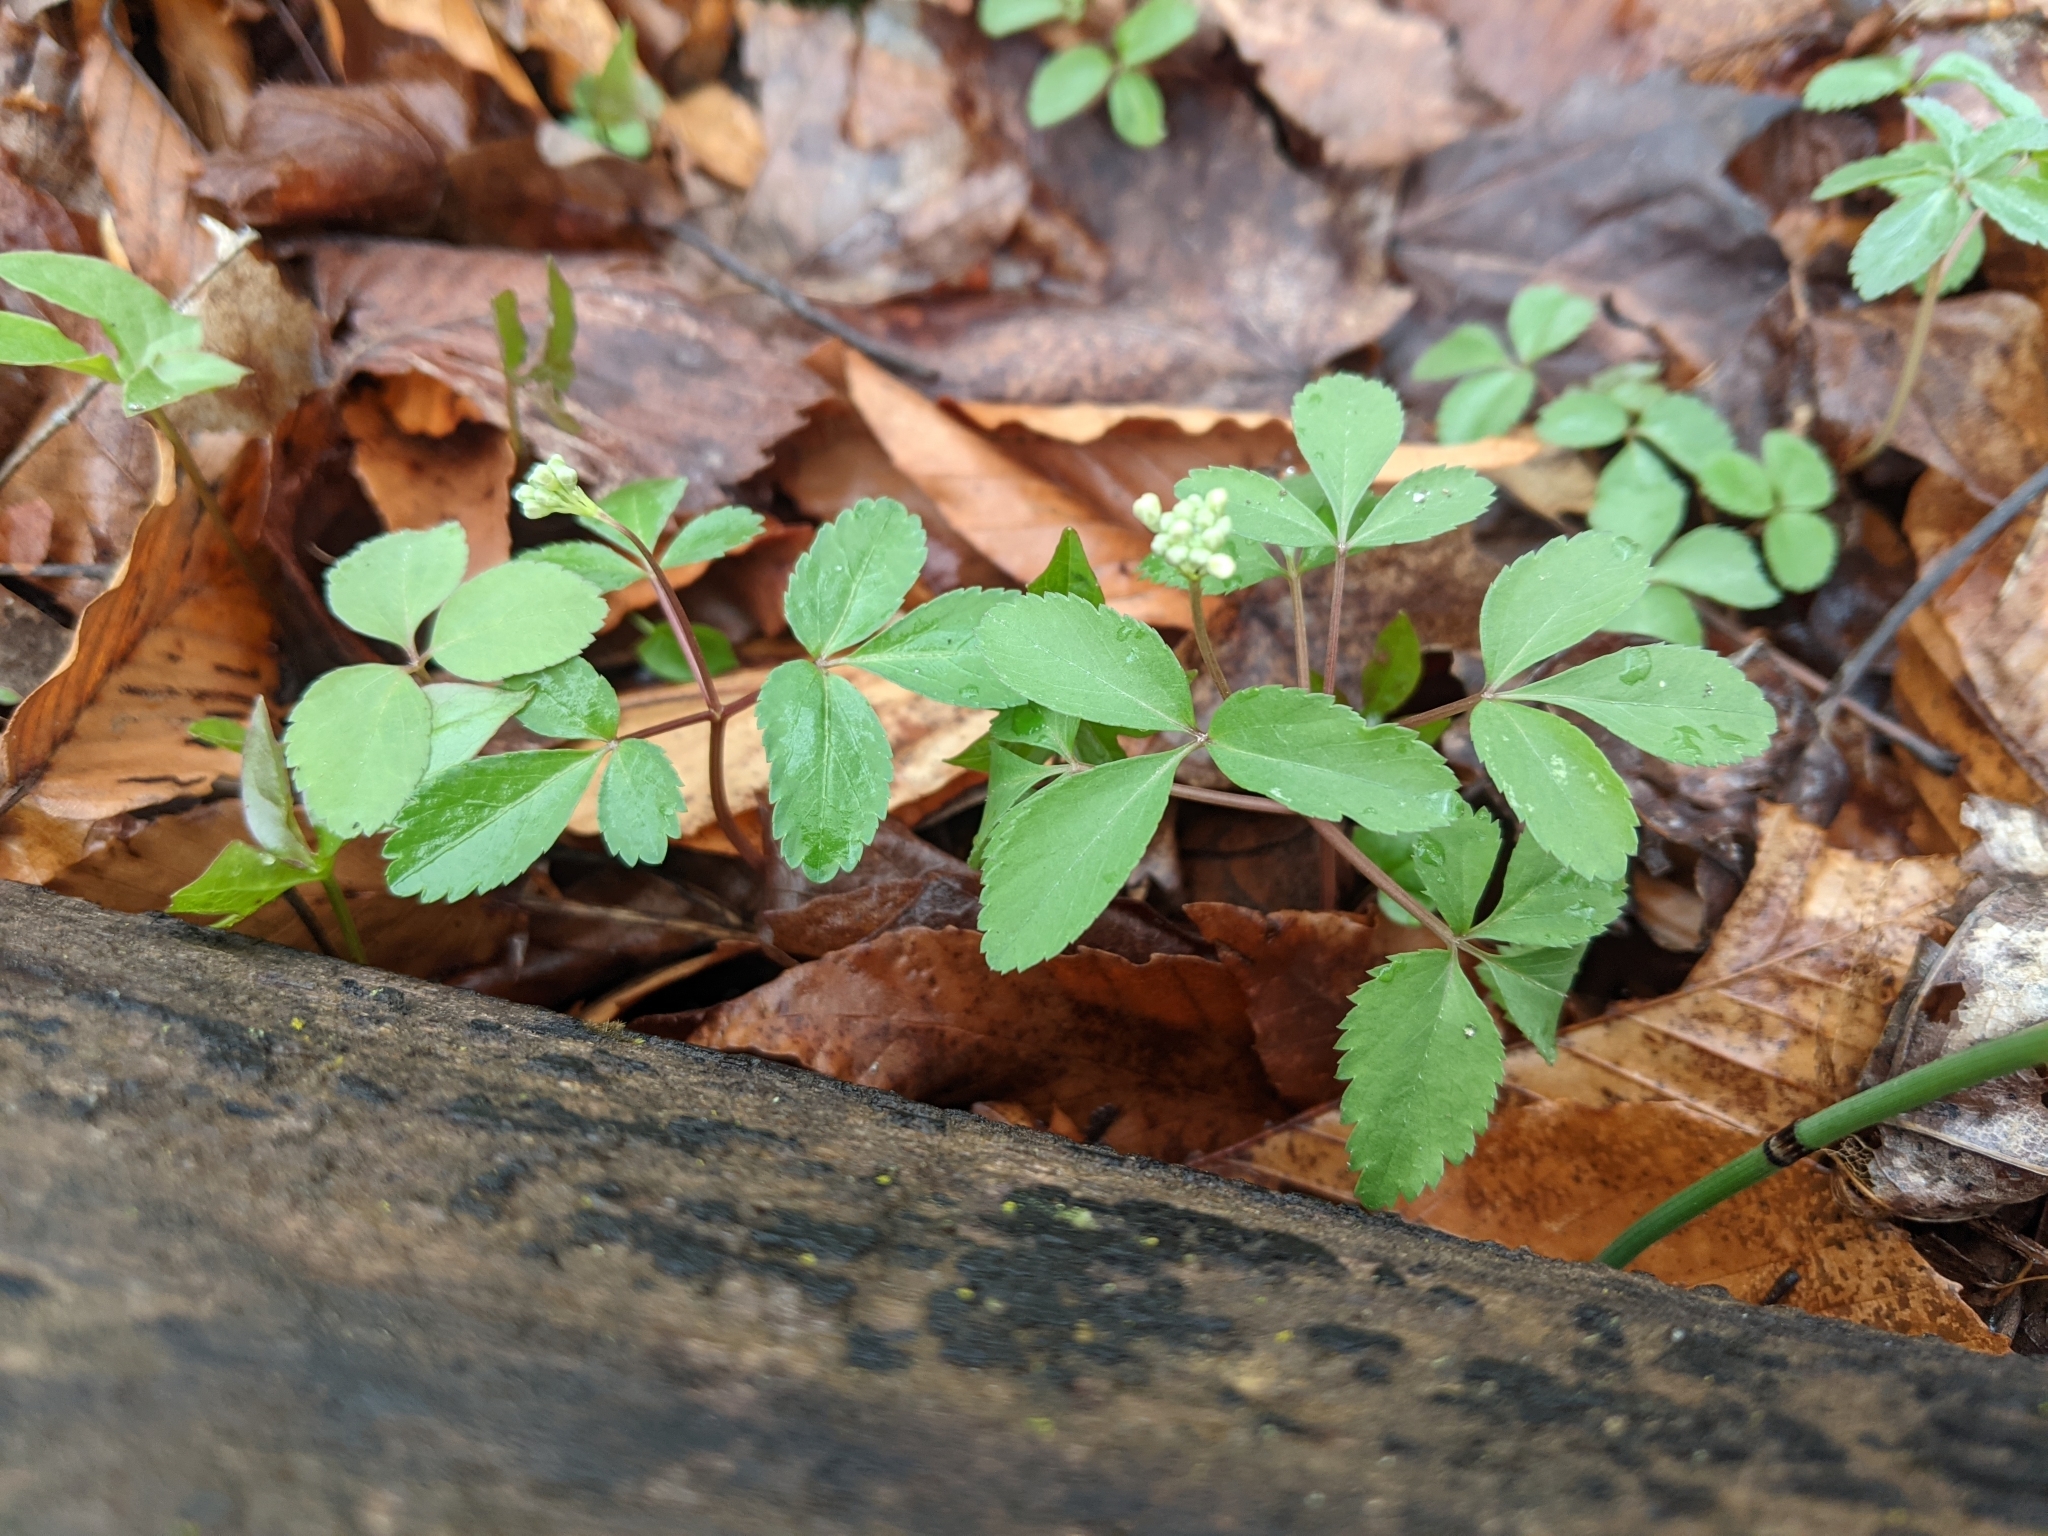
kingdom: Plantae
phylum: Tracheophyta
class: Magnoliopsida
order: Apiales
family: Araliaceae
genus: Panax
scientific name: Panax trifolius
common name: Dwarf ginseng
